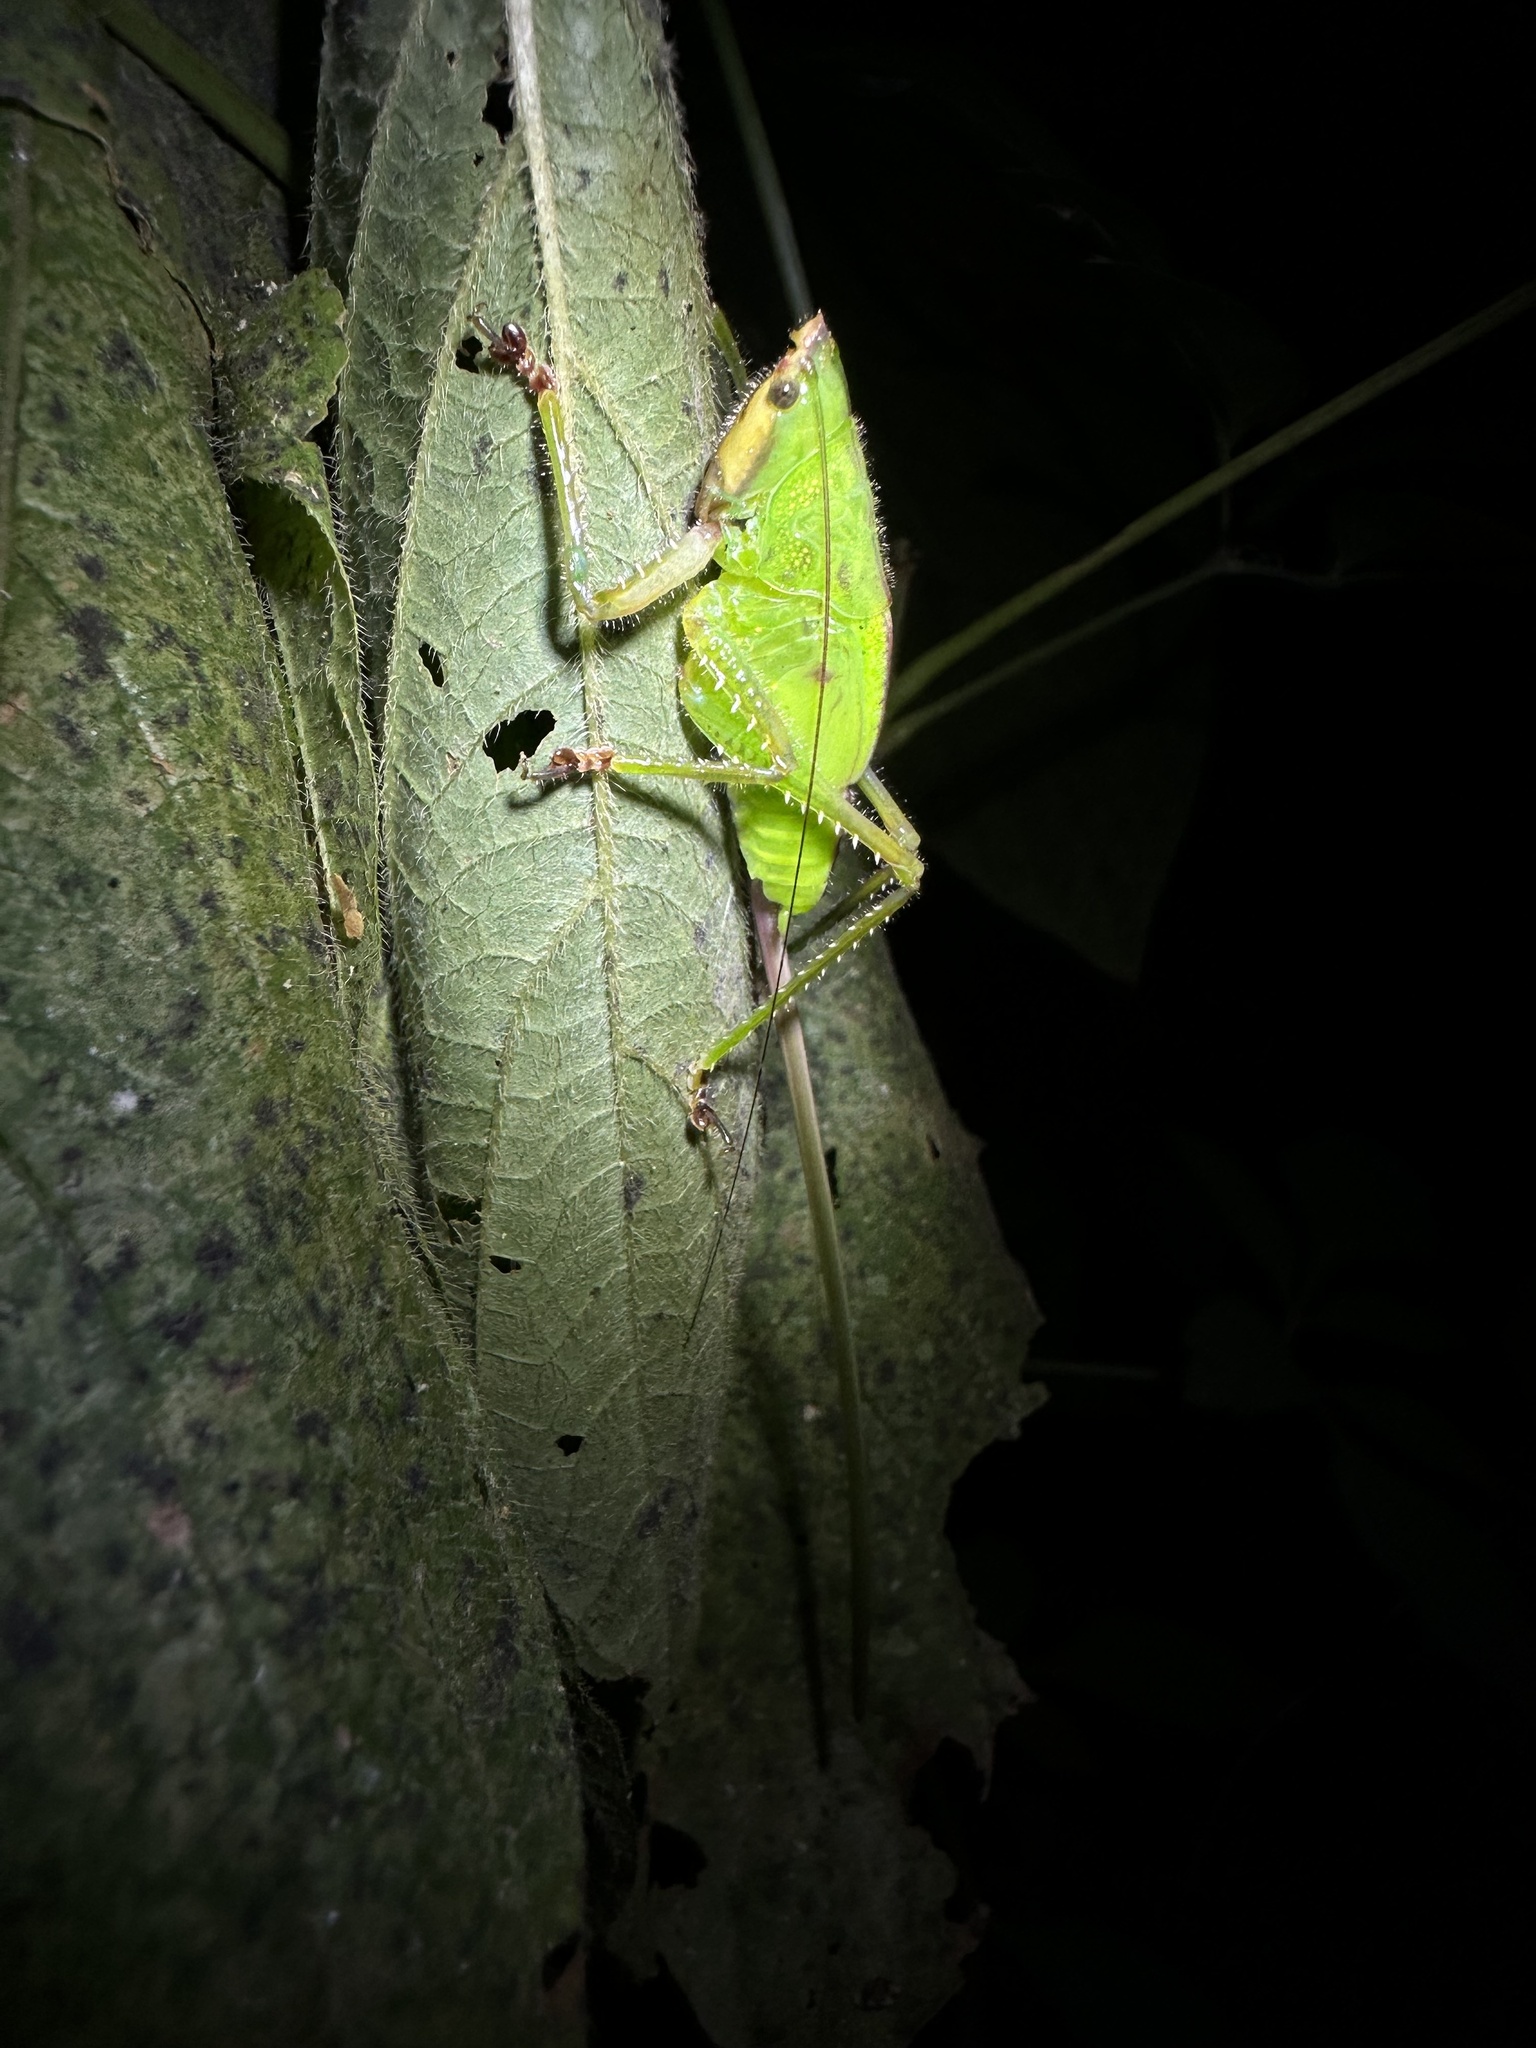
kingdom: Animalia
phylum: Arthropoda
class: Insecta
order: Orthoptera
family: Tettigoniidae
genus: Copiphora
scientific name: Copiphora brevirostris
